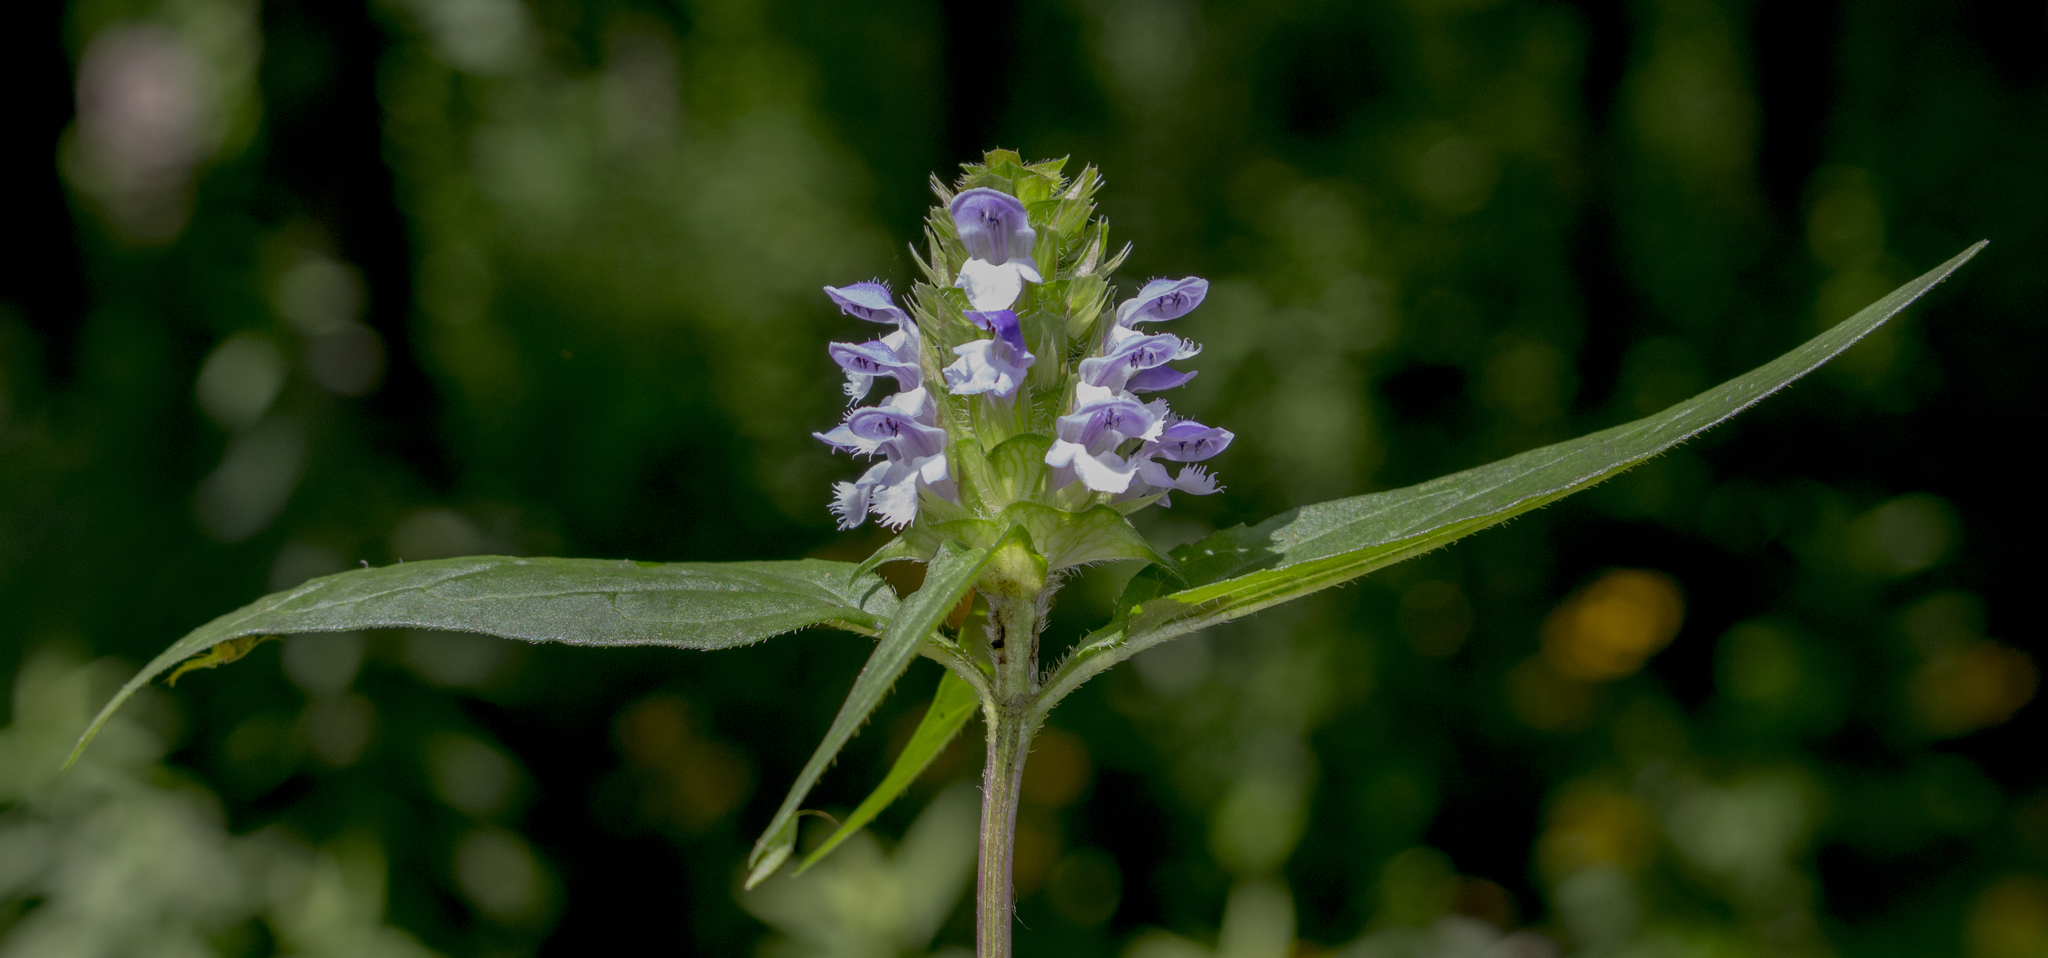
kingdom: Plantae
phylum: Tracheophyta
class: Magnoliopsida
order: Lamiales
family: Lamiaceae
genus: Prunella
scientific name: Prunella vulgaris
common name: Heal-all
